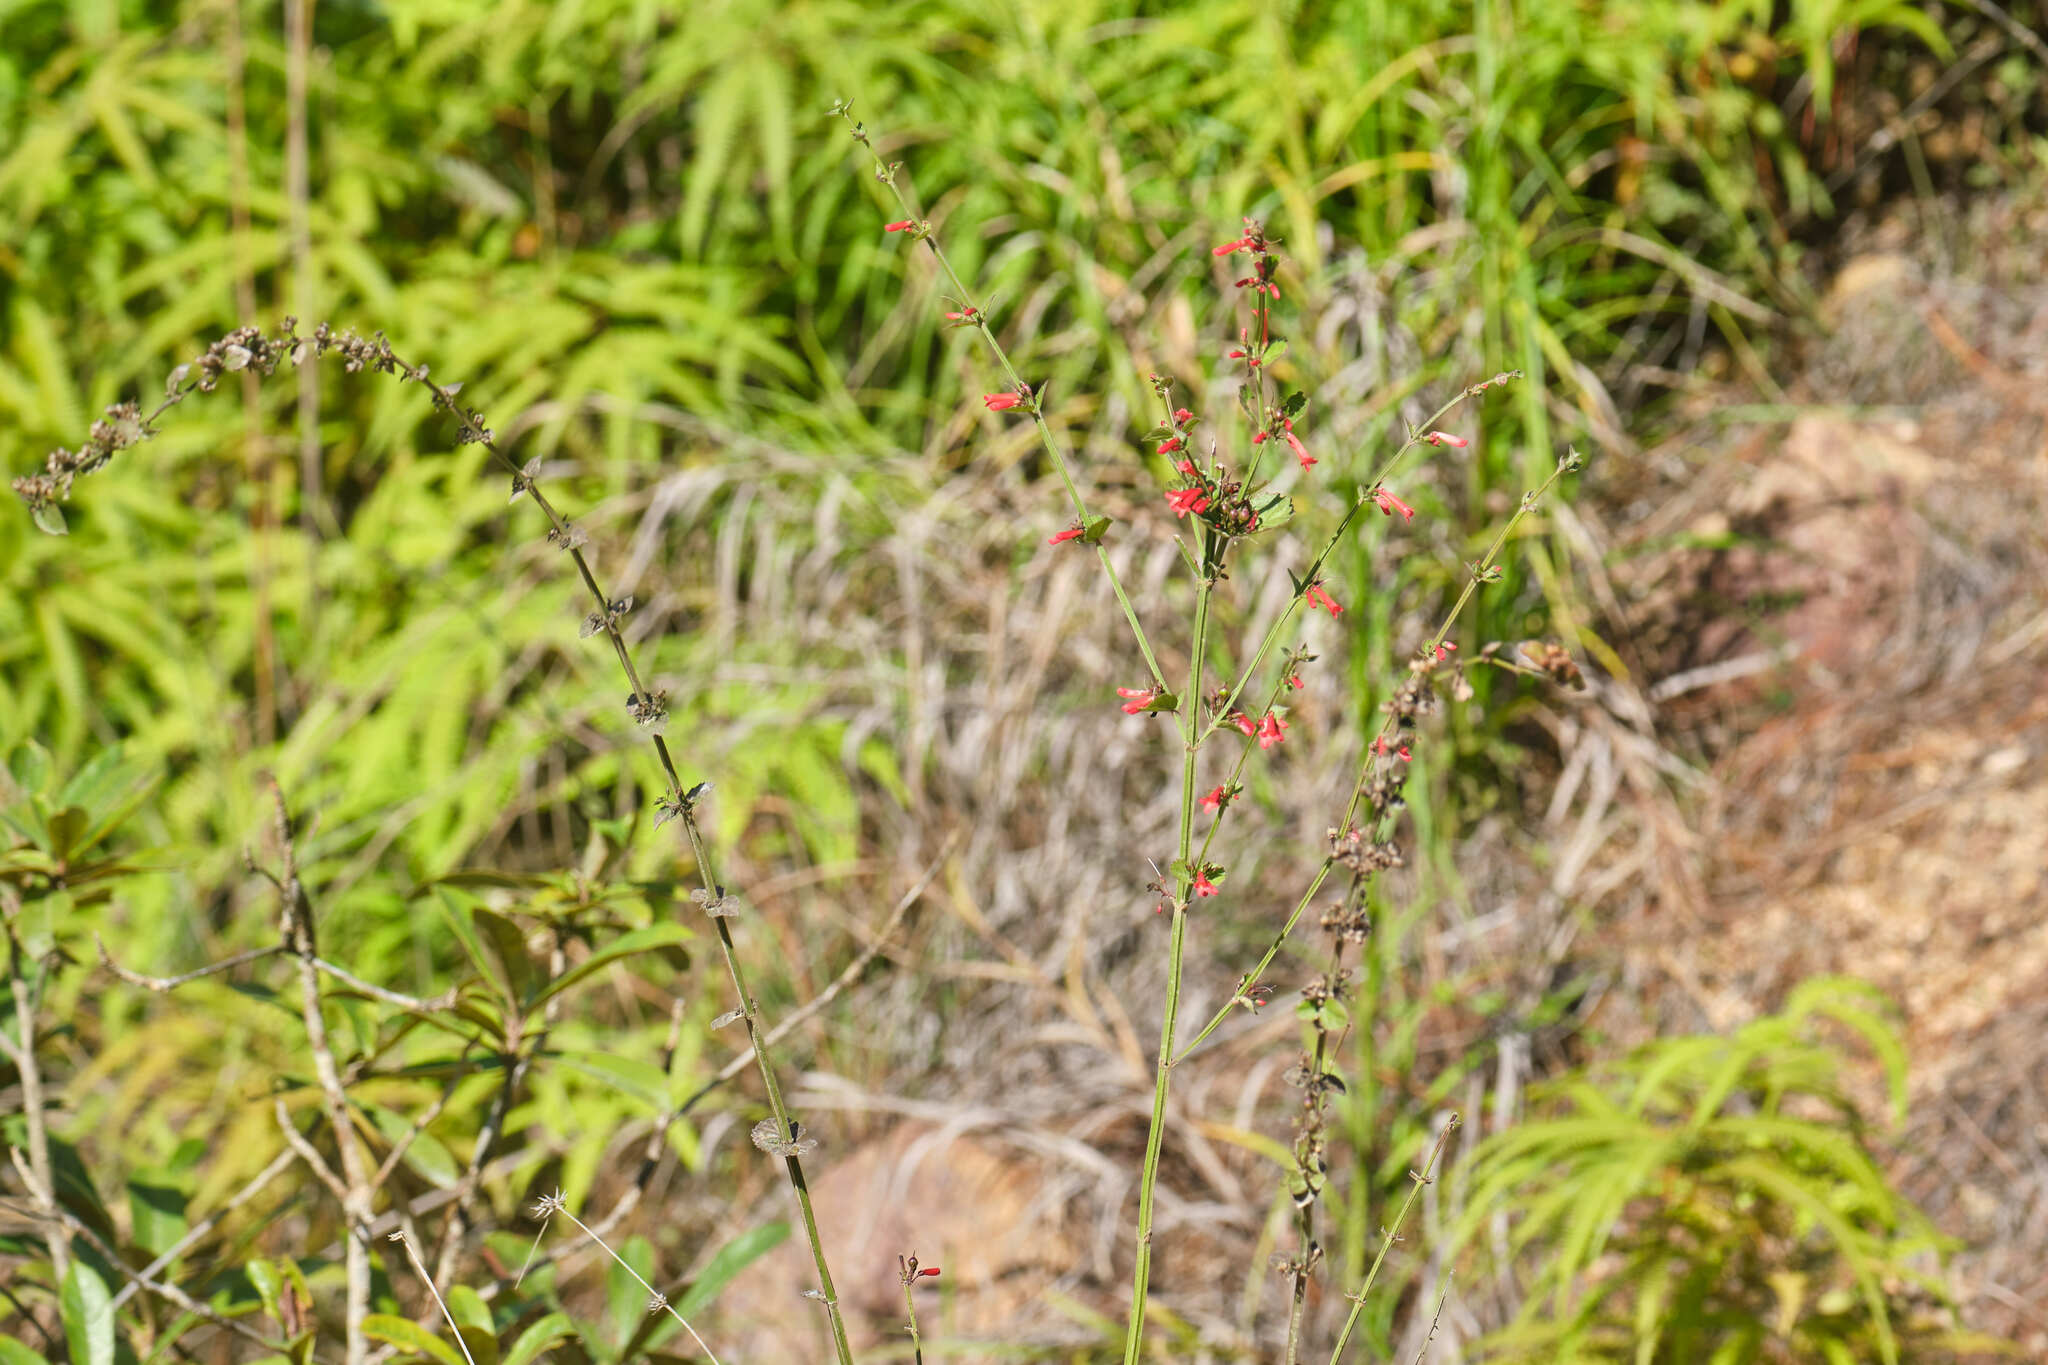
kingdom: Plantae
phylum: Tracheophyta
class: Magnoliopsida
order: Lamiales
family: Plantaginaceae
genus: Russelia
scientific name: Russelia sarmentosa
